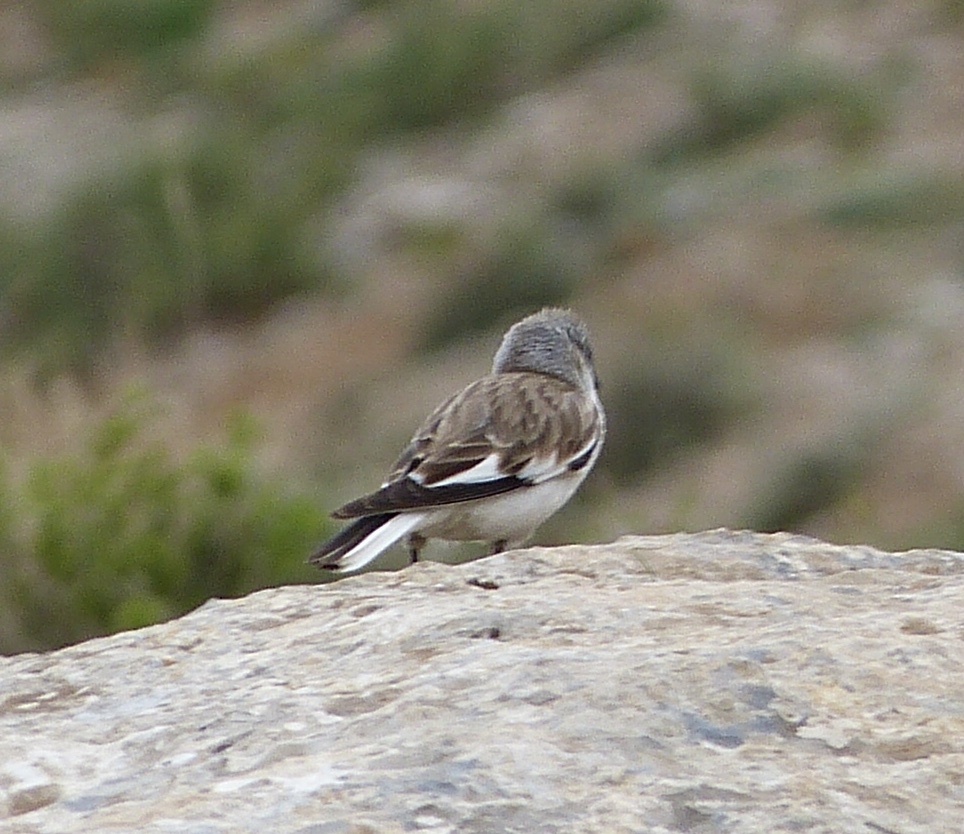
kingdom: Animalia
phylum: Chordata
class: Aves
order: Passeriformes
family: Passeridae
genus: Montifringilla
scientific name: Montifringilla nivalis
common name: White-winged snowfinch
